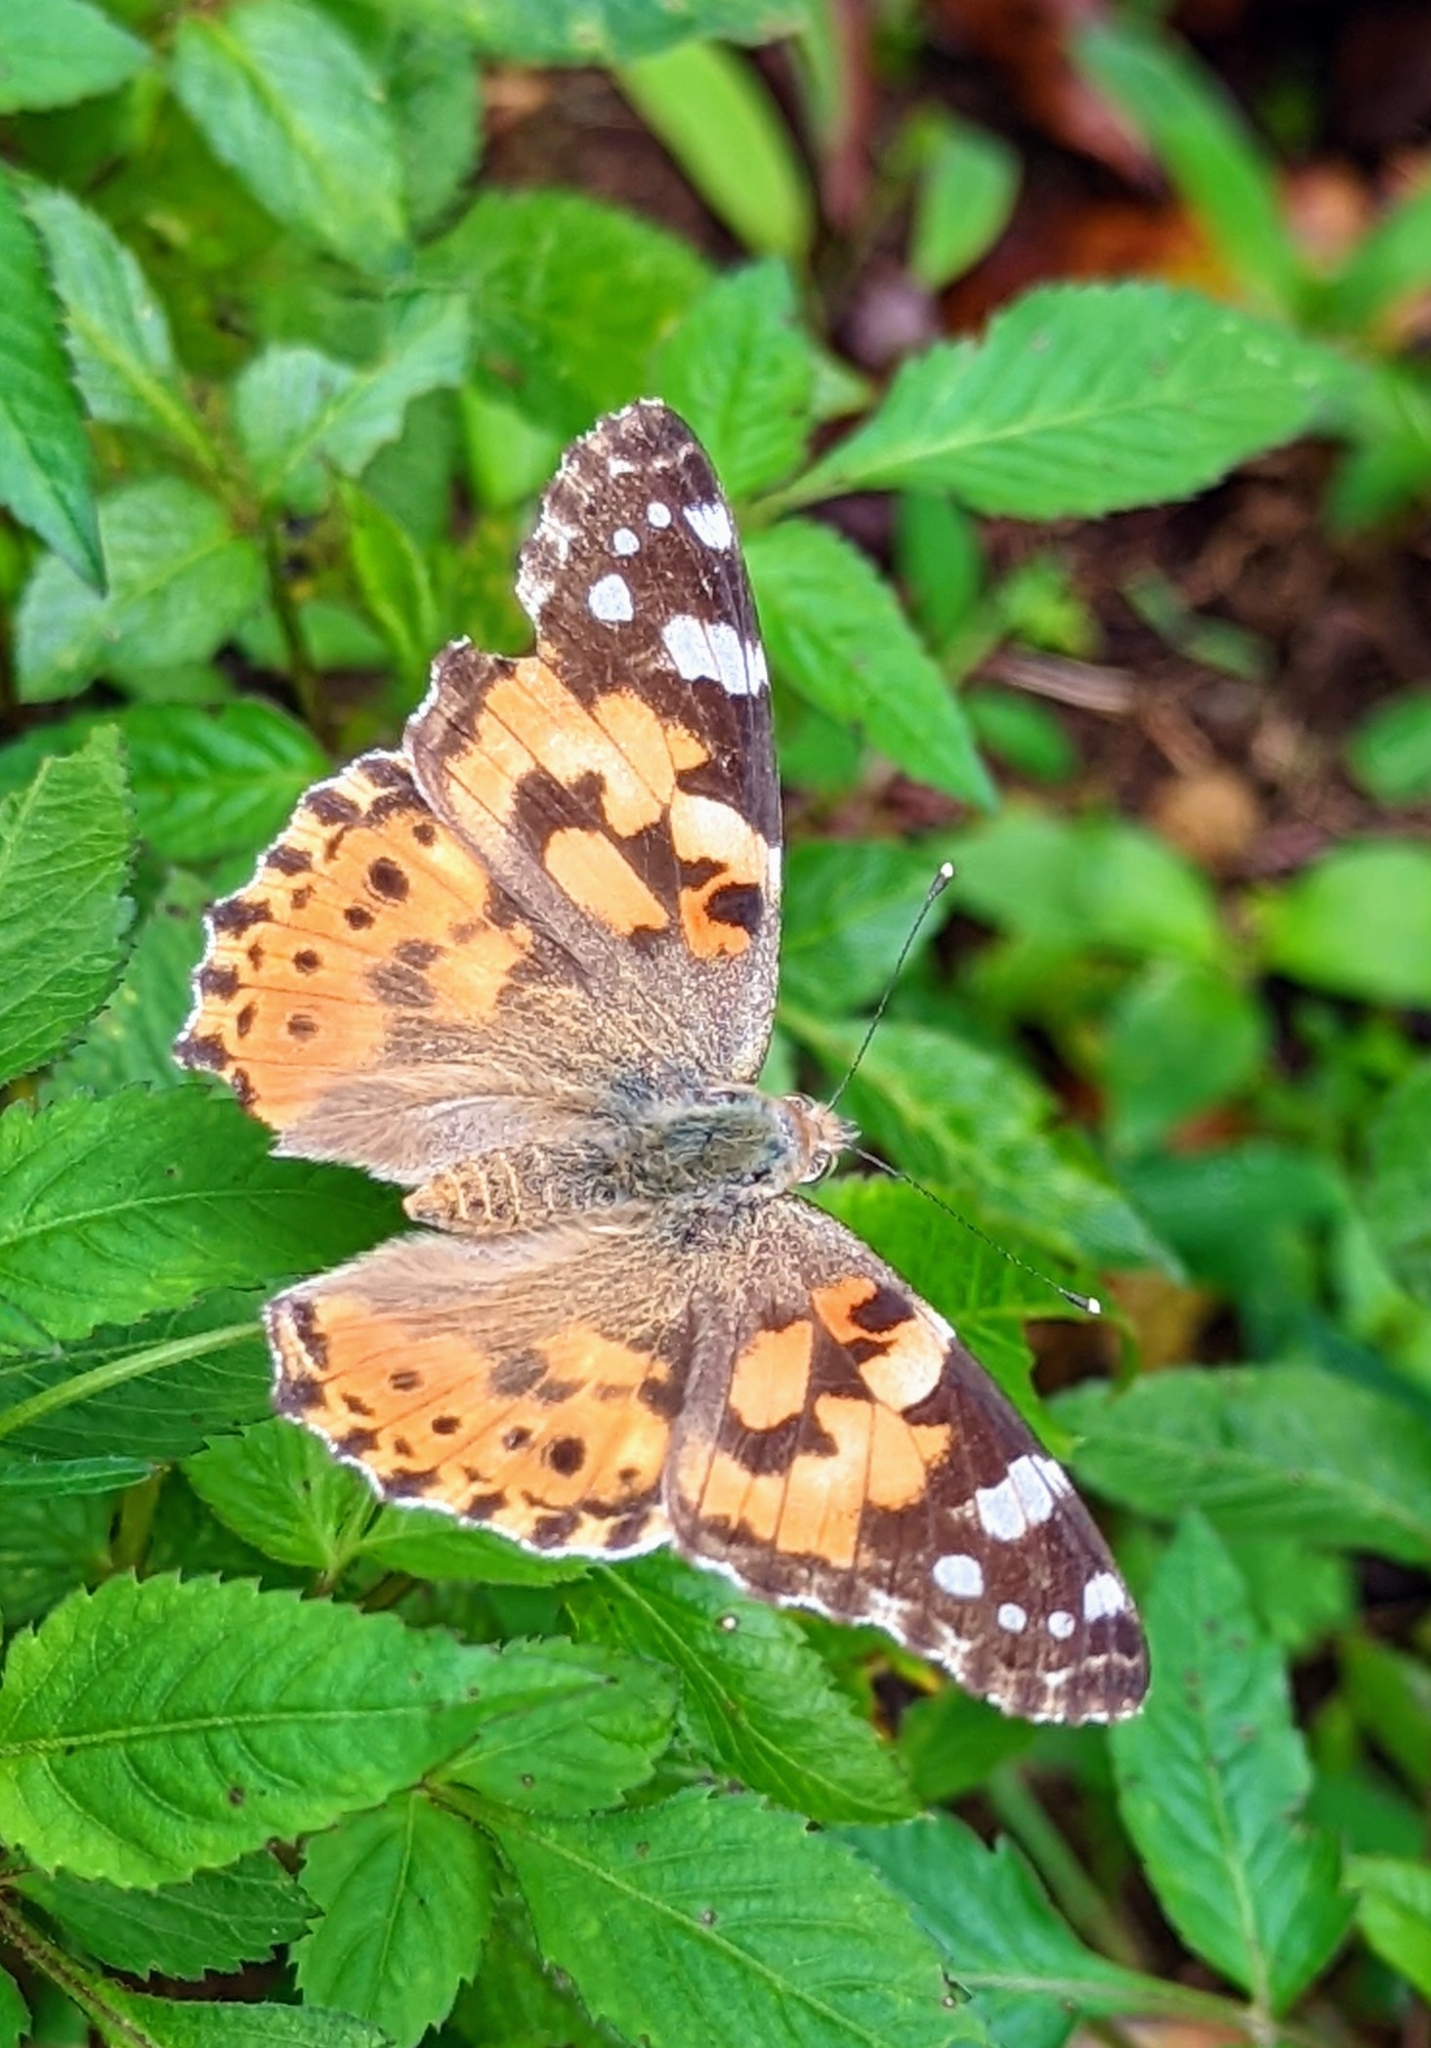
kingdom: Animalia
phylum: Arthropoda
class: Insecta
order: Lepidoptera
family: Nymphalidae
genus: Vanessa
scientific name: Vanessa cardui
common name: Painted lady
